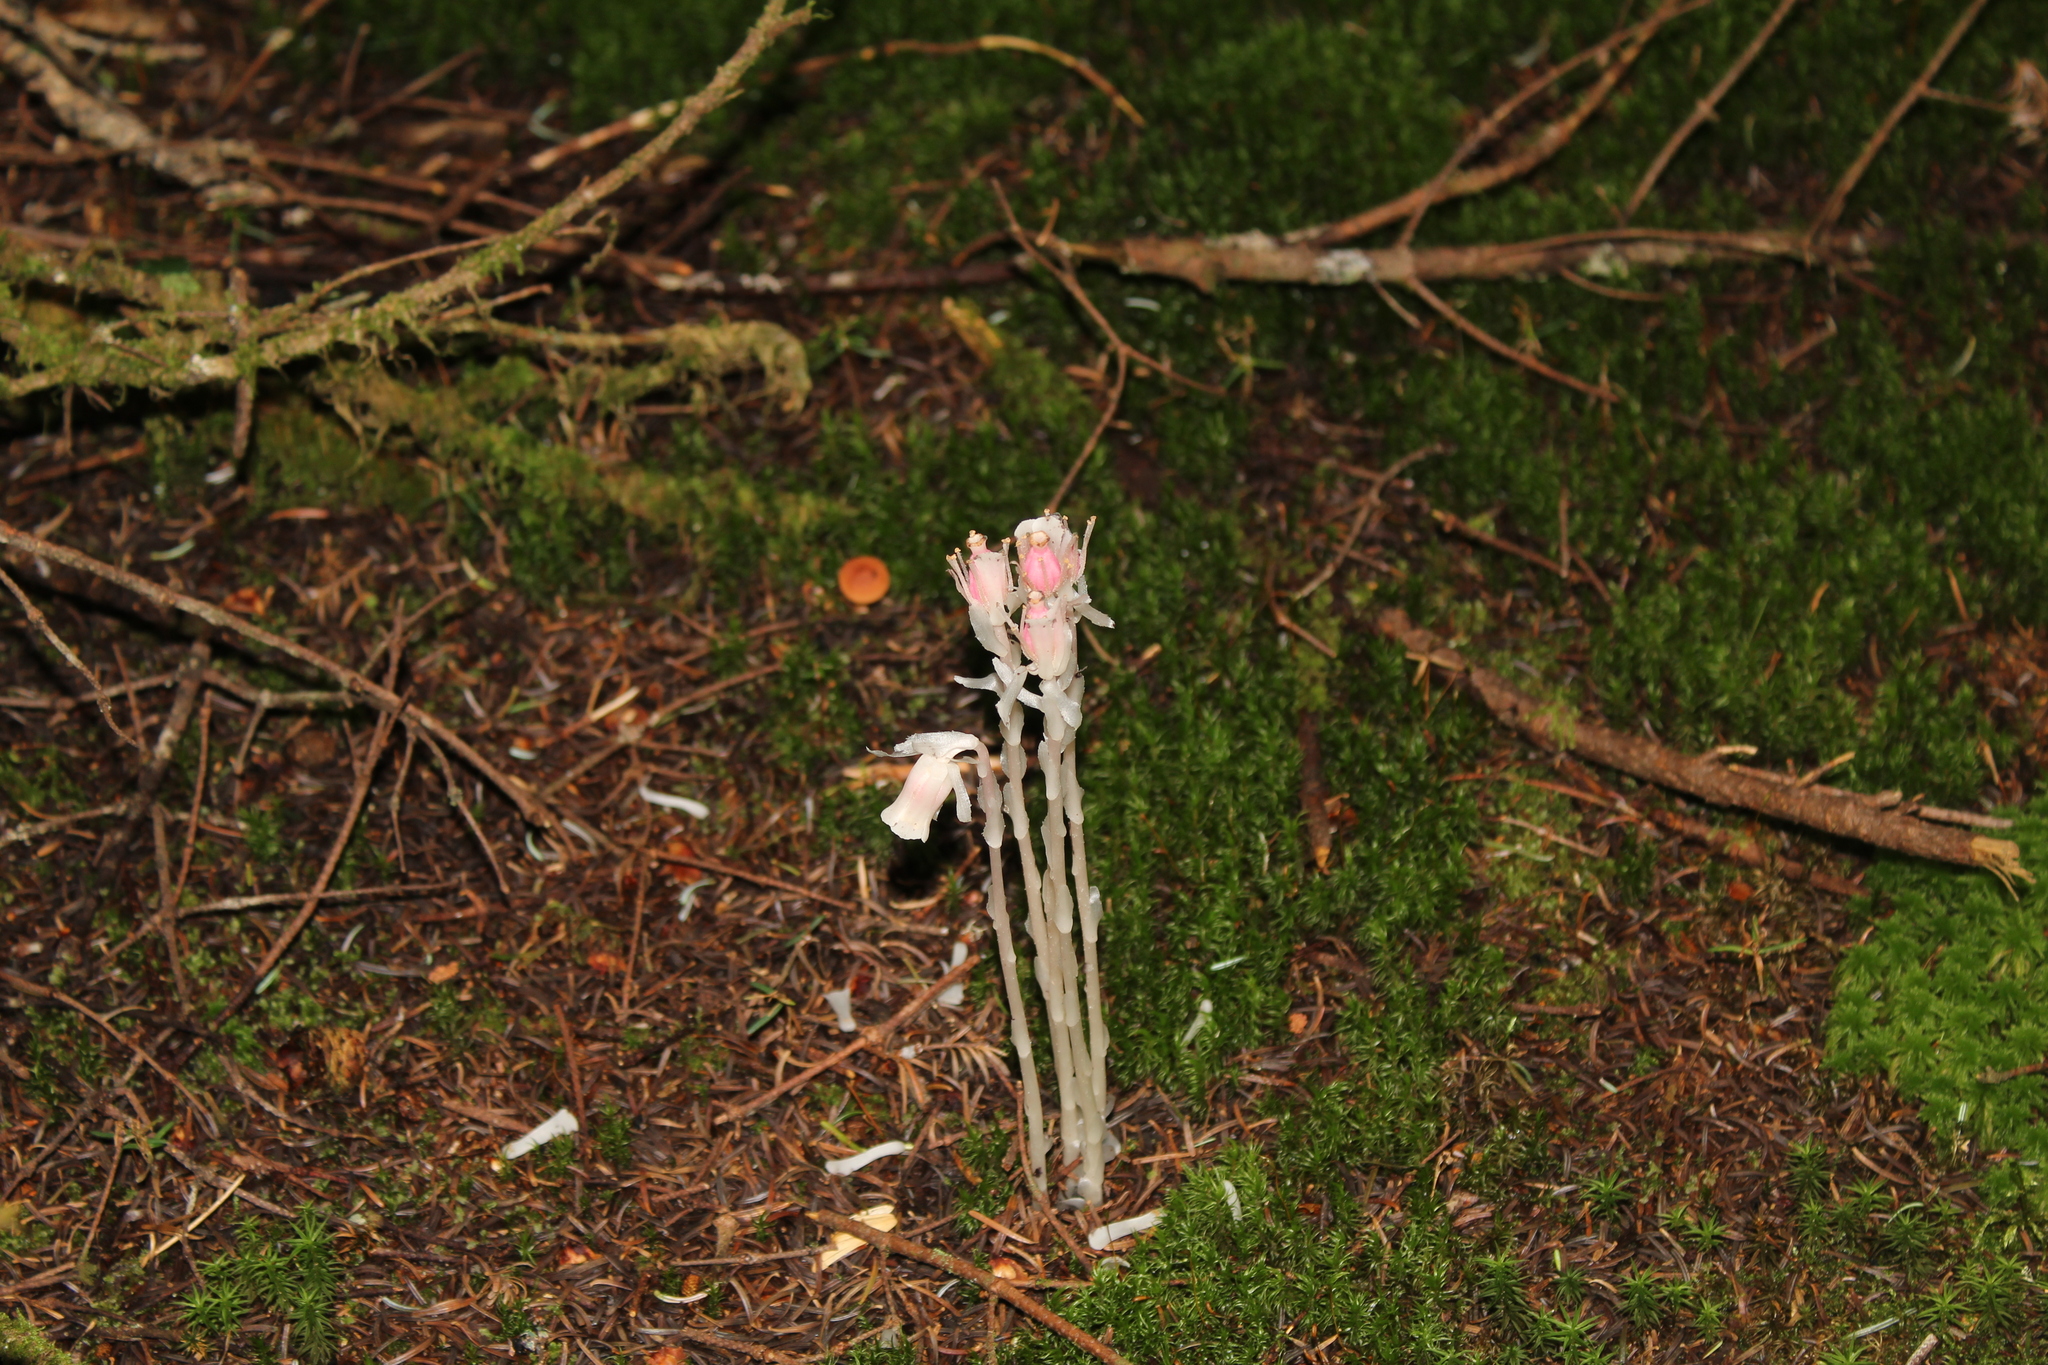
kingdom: Plantae
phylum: Tracheophyta
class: Magnoliopsida
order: Ericales
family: Ericaceae
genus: Monotropa
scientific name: Monotropa uniflora
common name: Convulsion root
